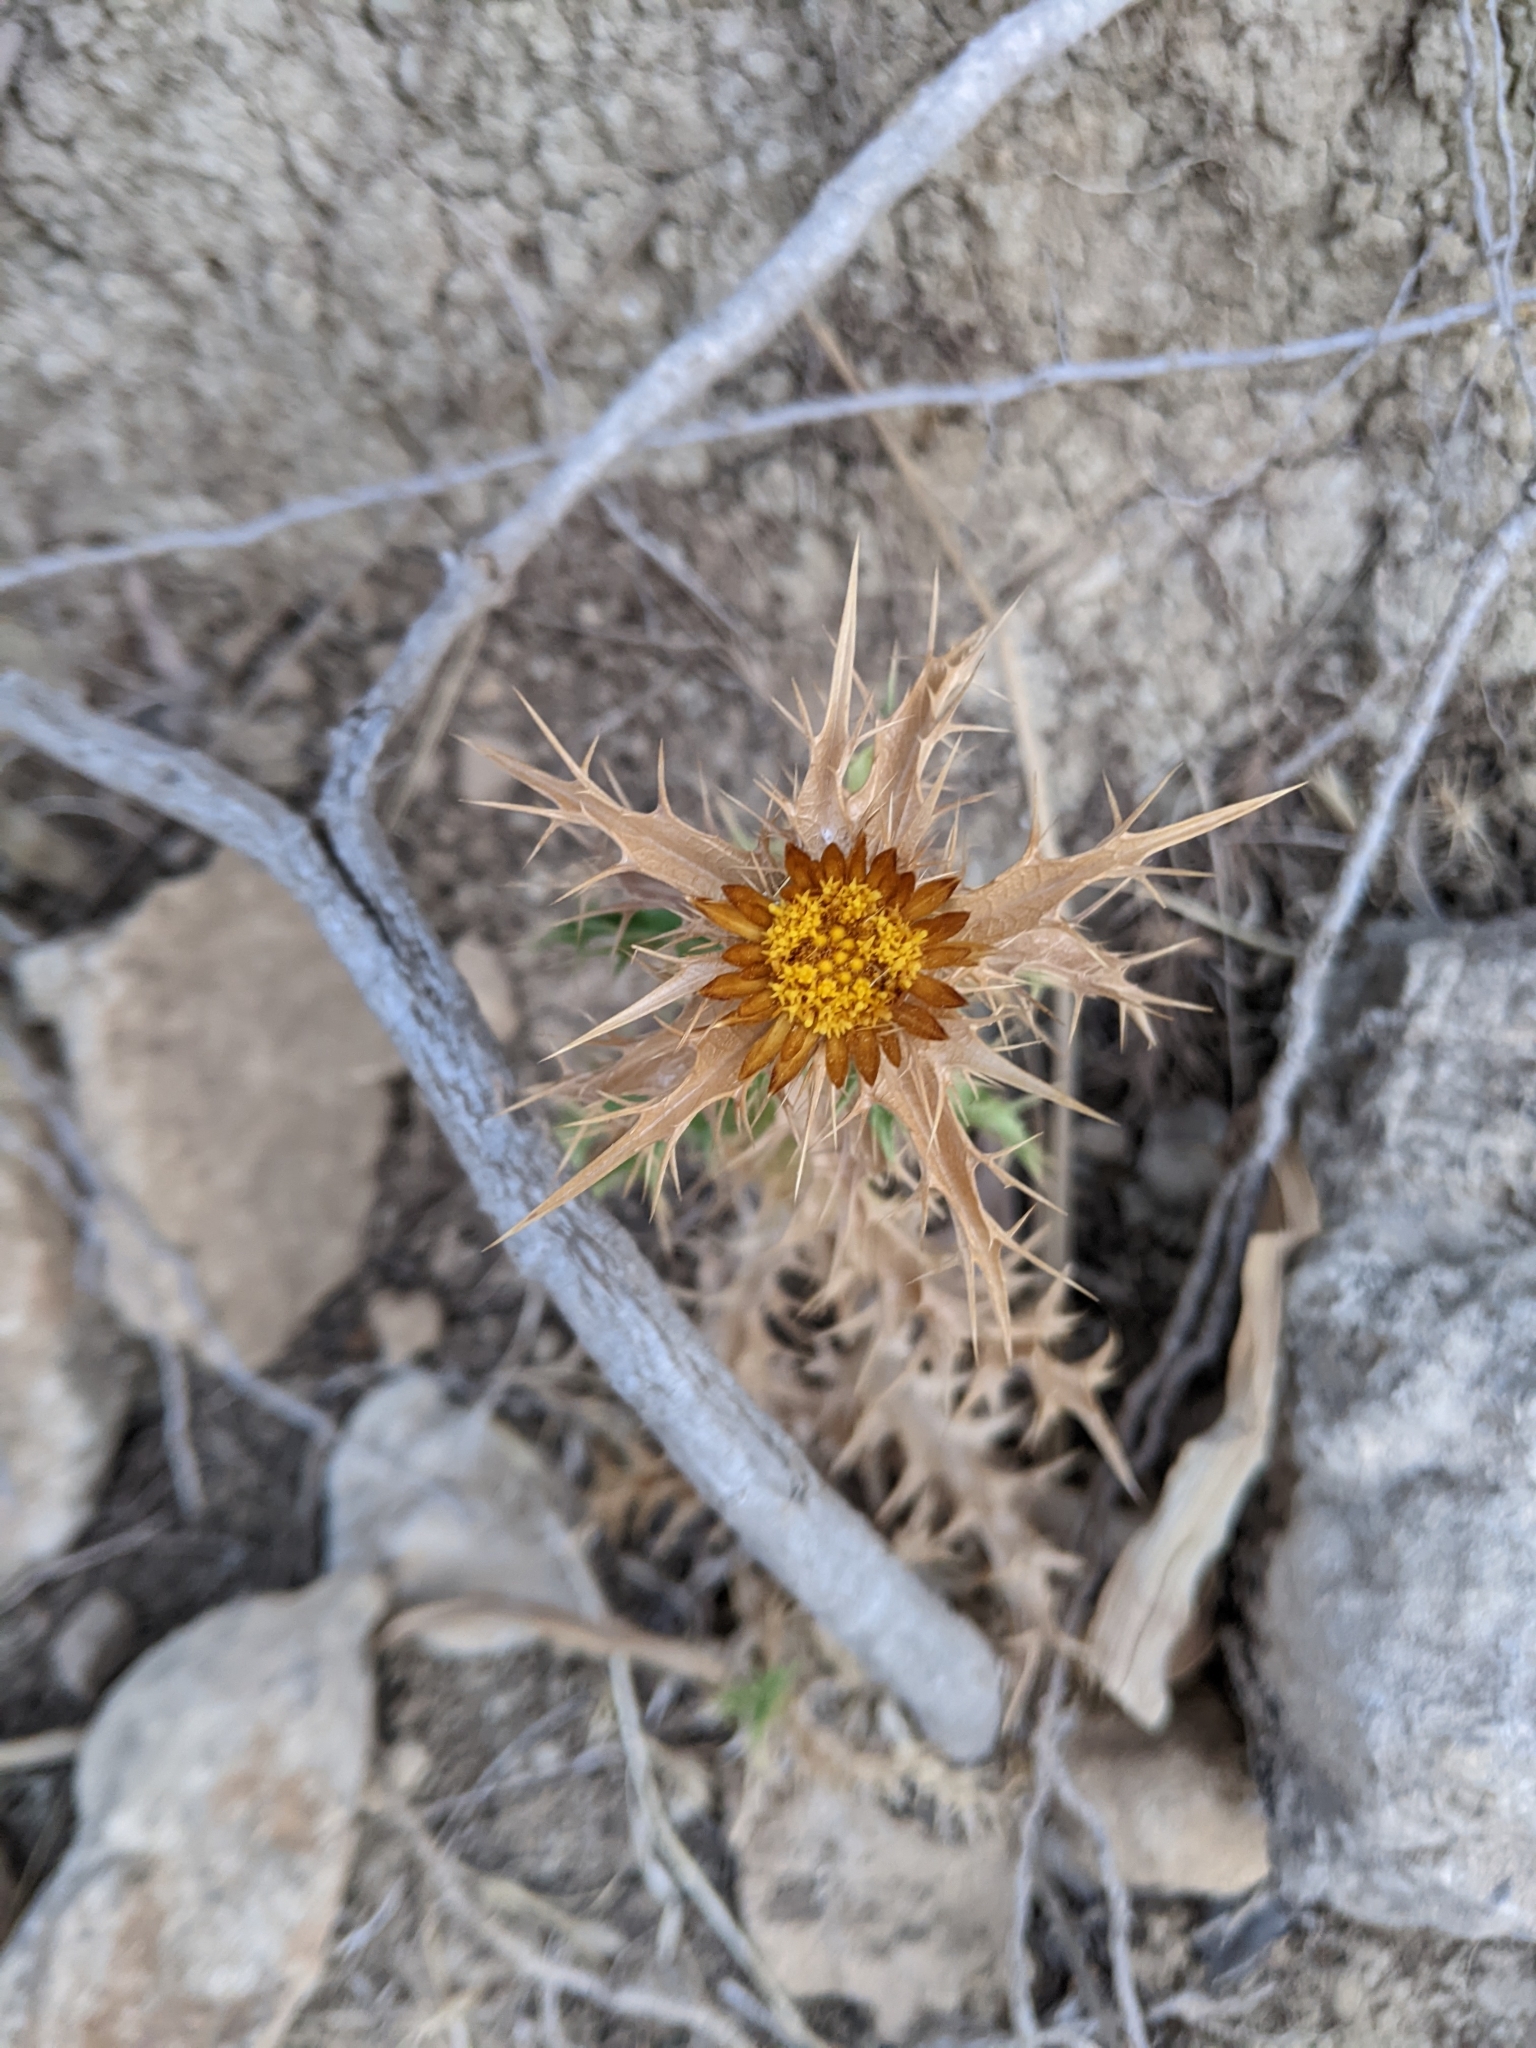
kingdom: Plantae
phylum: Tracheophyta
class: Magnoliopsida
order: Asterales
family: Asteraceae
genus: Carlina
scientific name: Carlina corymbosa
